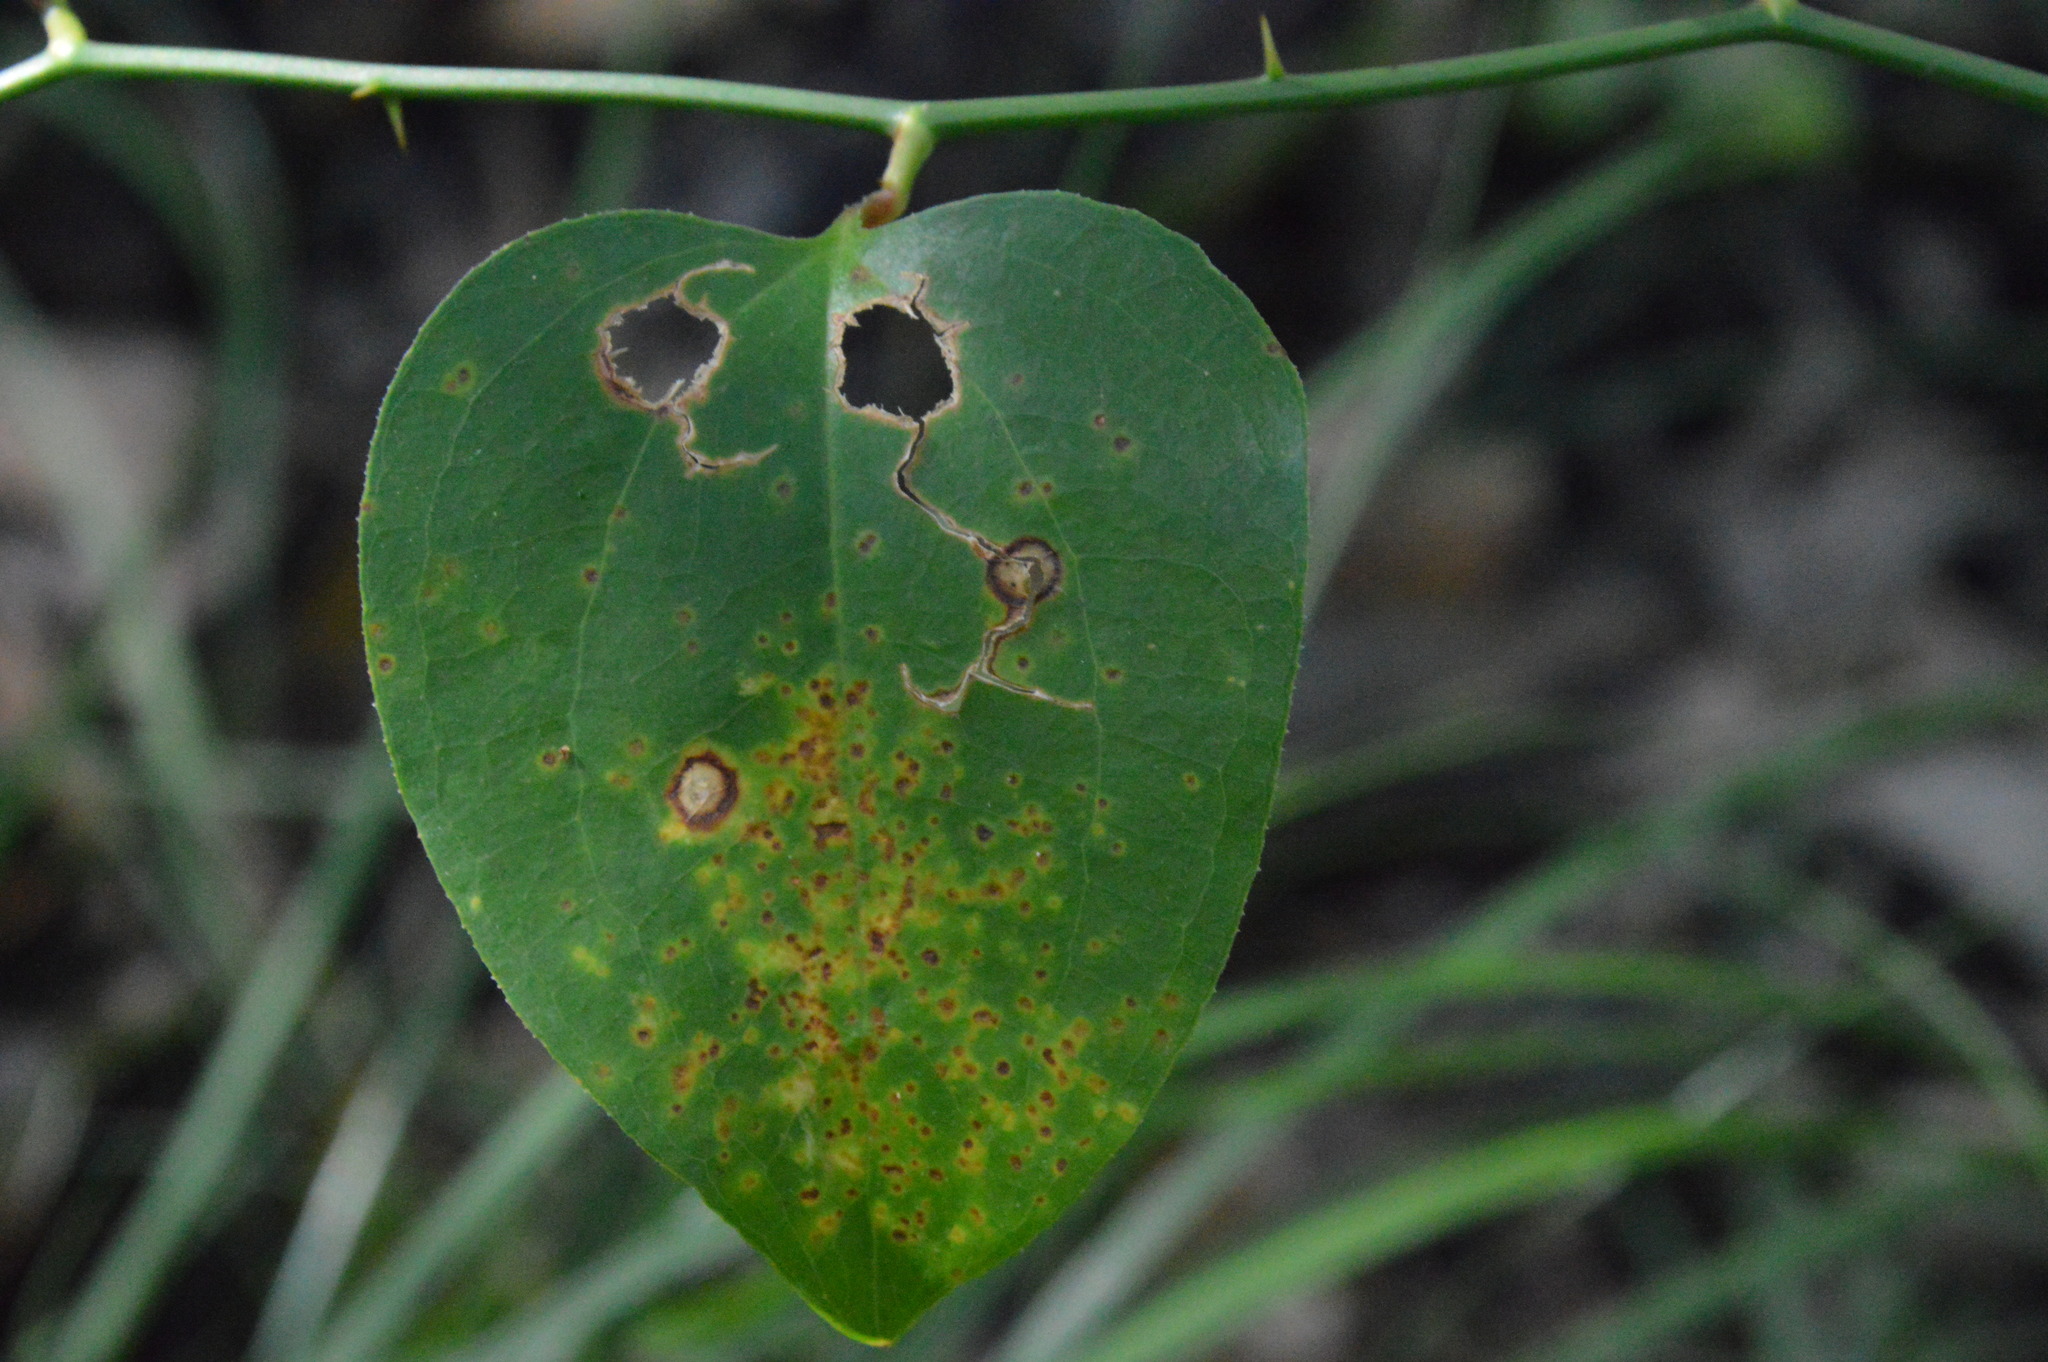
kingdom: Plantae
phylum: Tracheophyta
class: Liliopsida
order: Liliales
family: Smilacaceae
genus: Smilax
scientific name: Smilax rotundifolia
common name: Bullbriar
